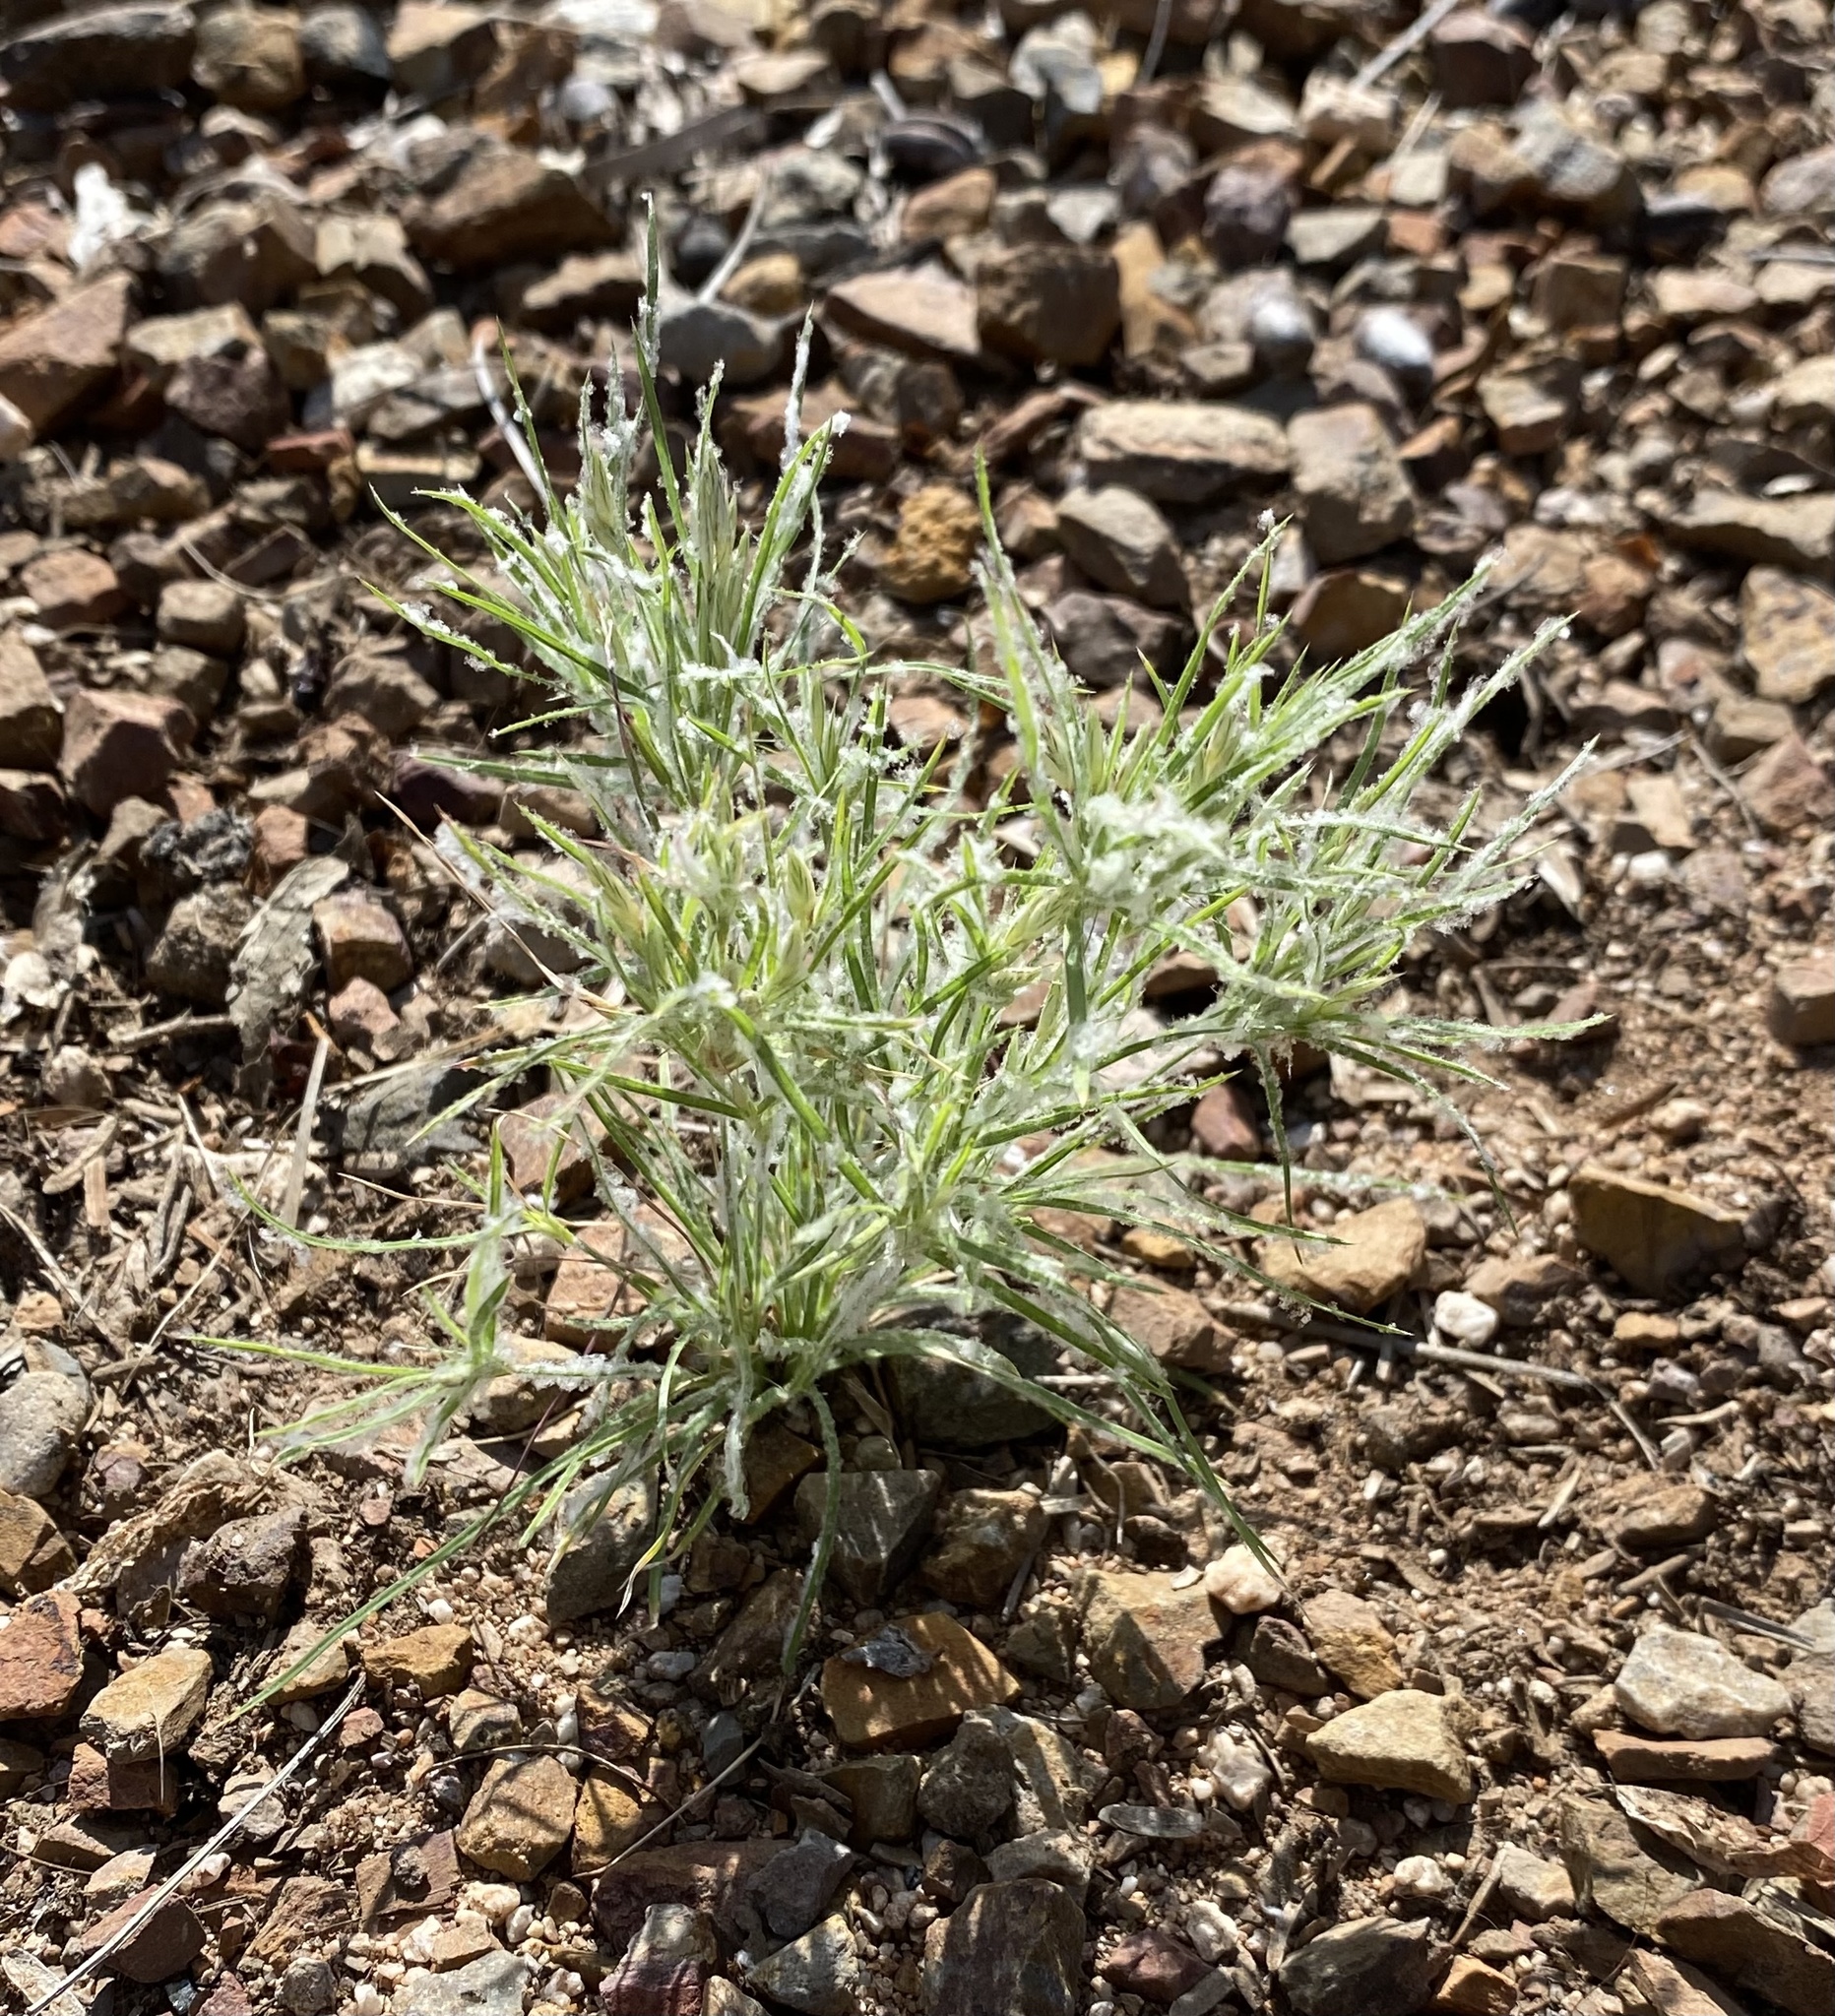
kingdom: Plantae
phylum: Tracheophyta
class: Liliopsida
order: Poales
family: Poaceae
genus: Dasyochloa
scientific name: Dasyochloa pulchella
